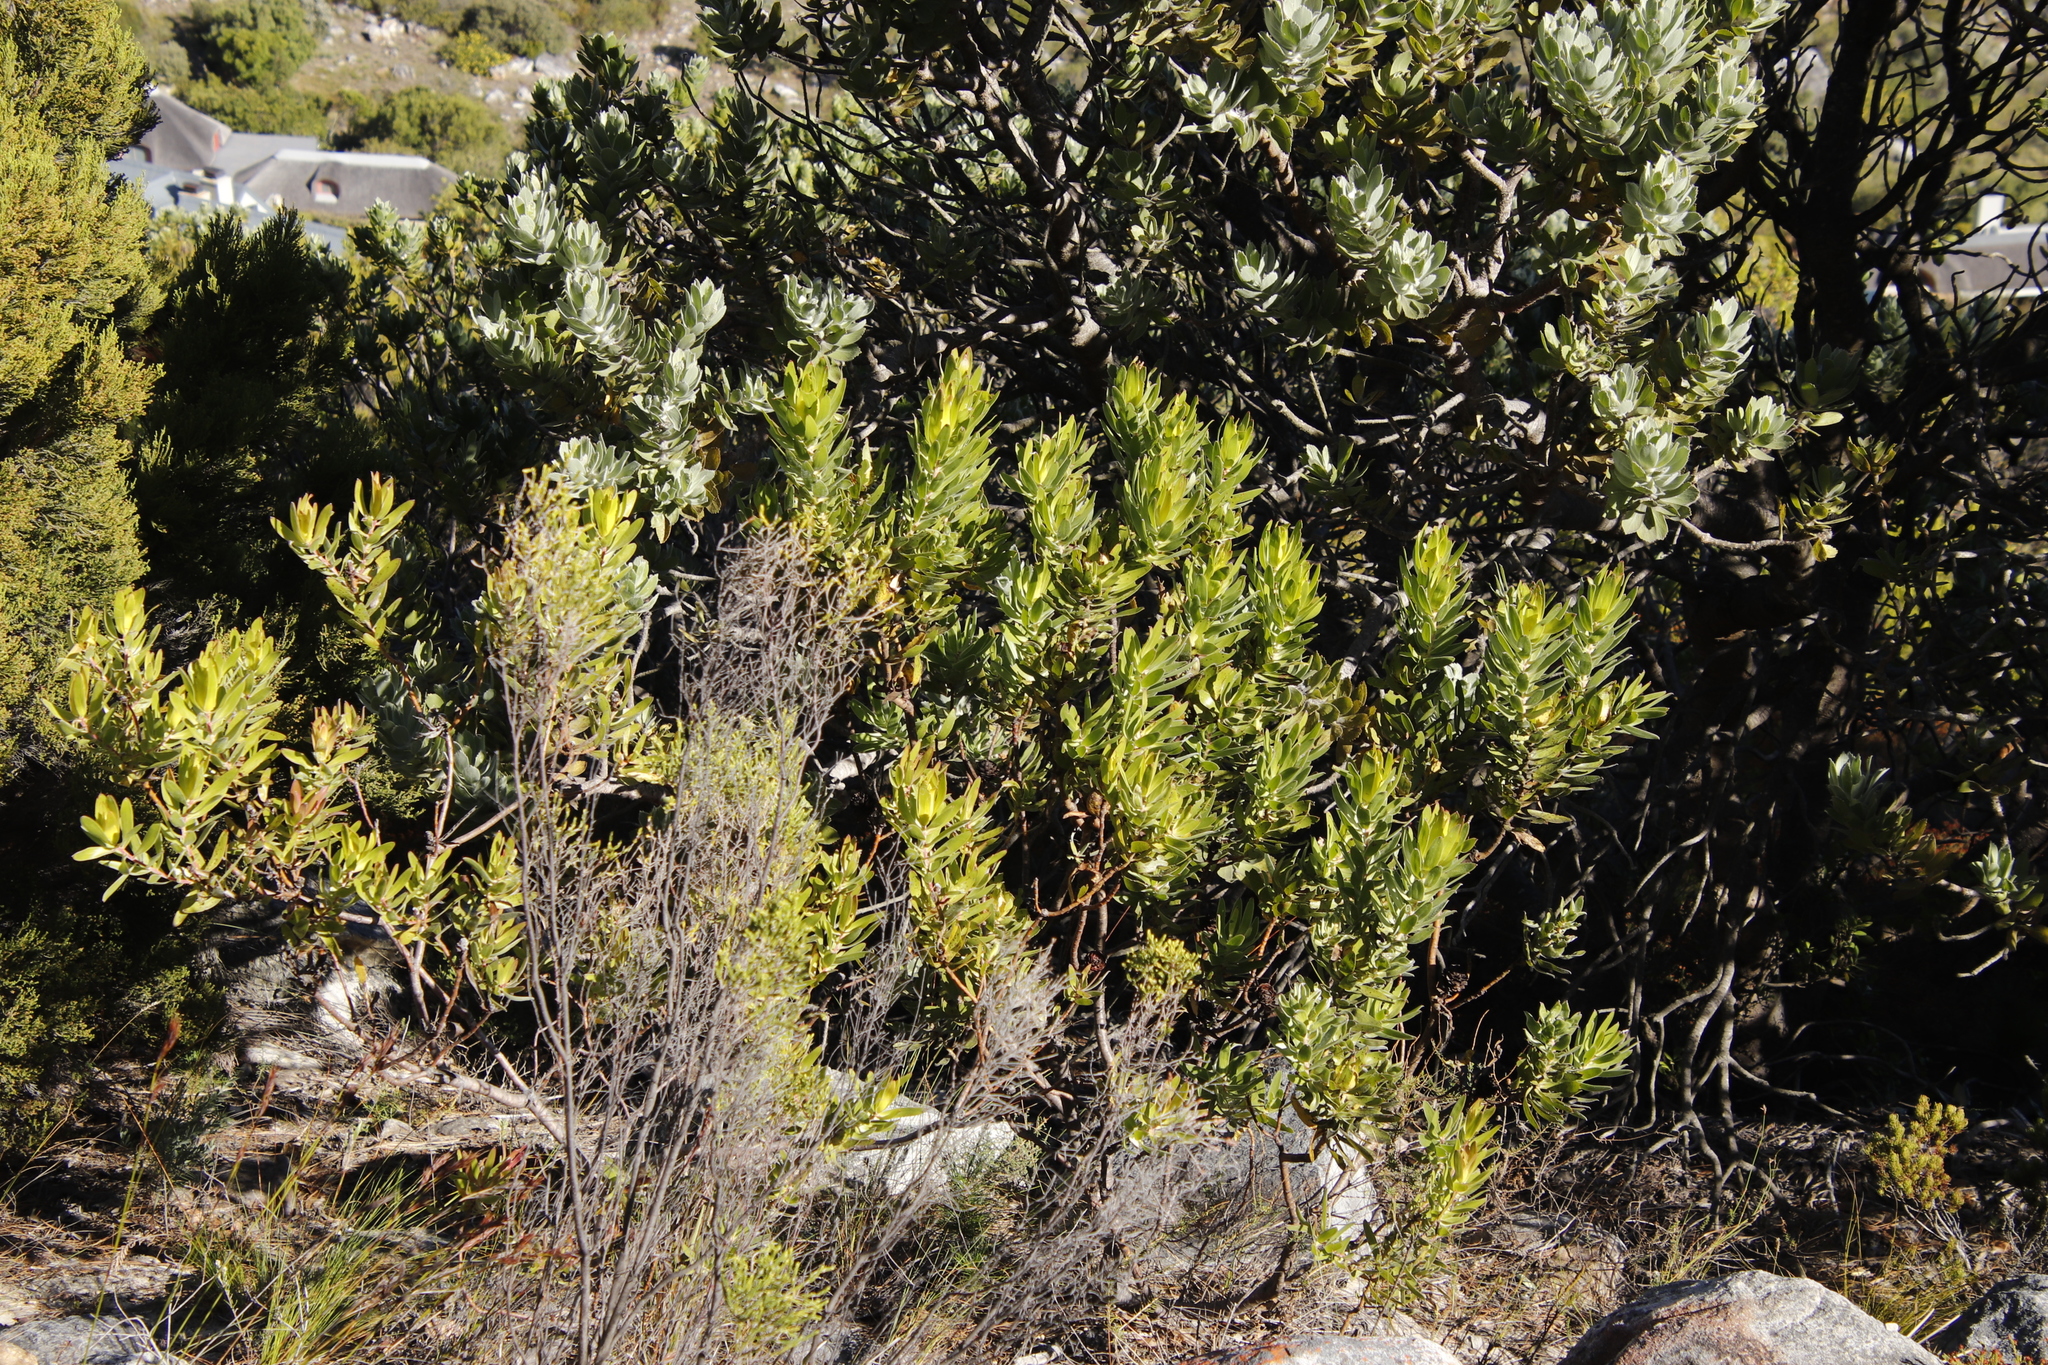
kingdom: Plantae
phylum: Tracheophyta
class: Magnoliopsida
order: Proteales
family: Proteaceae
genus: Leucadendron
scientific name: Leucadendron laureolum
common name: Golden sunshinebush
